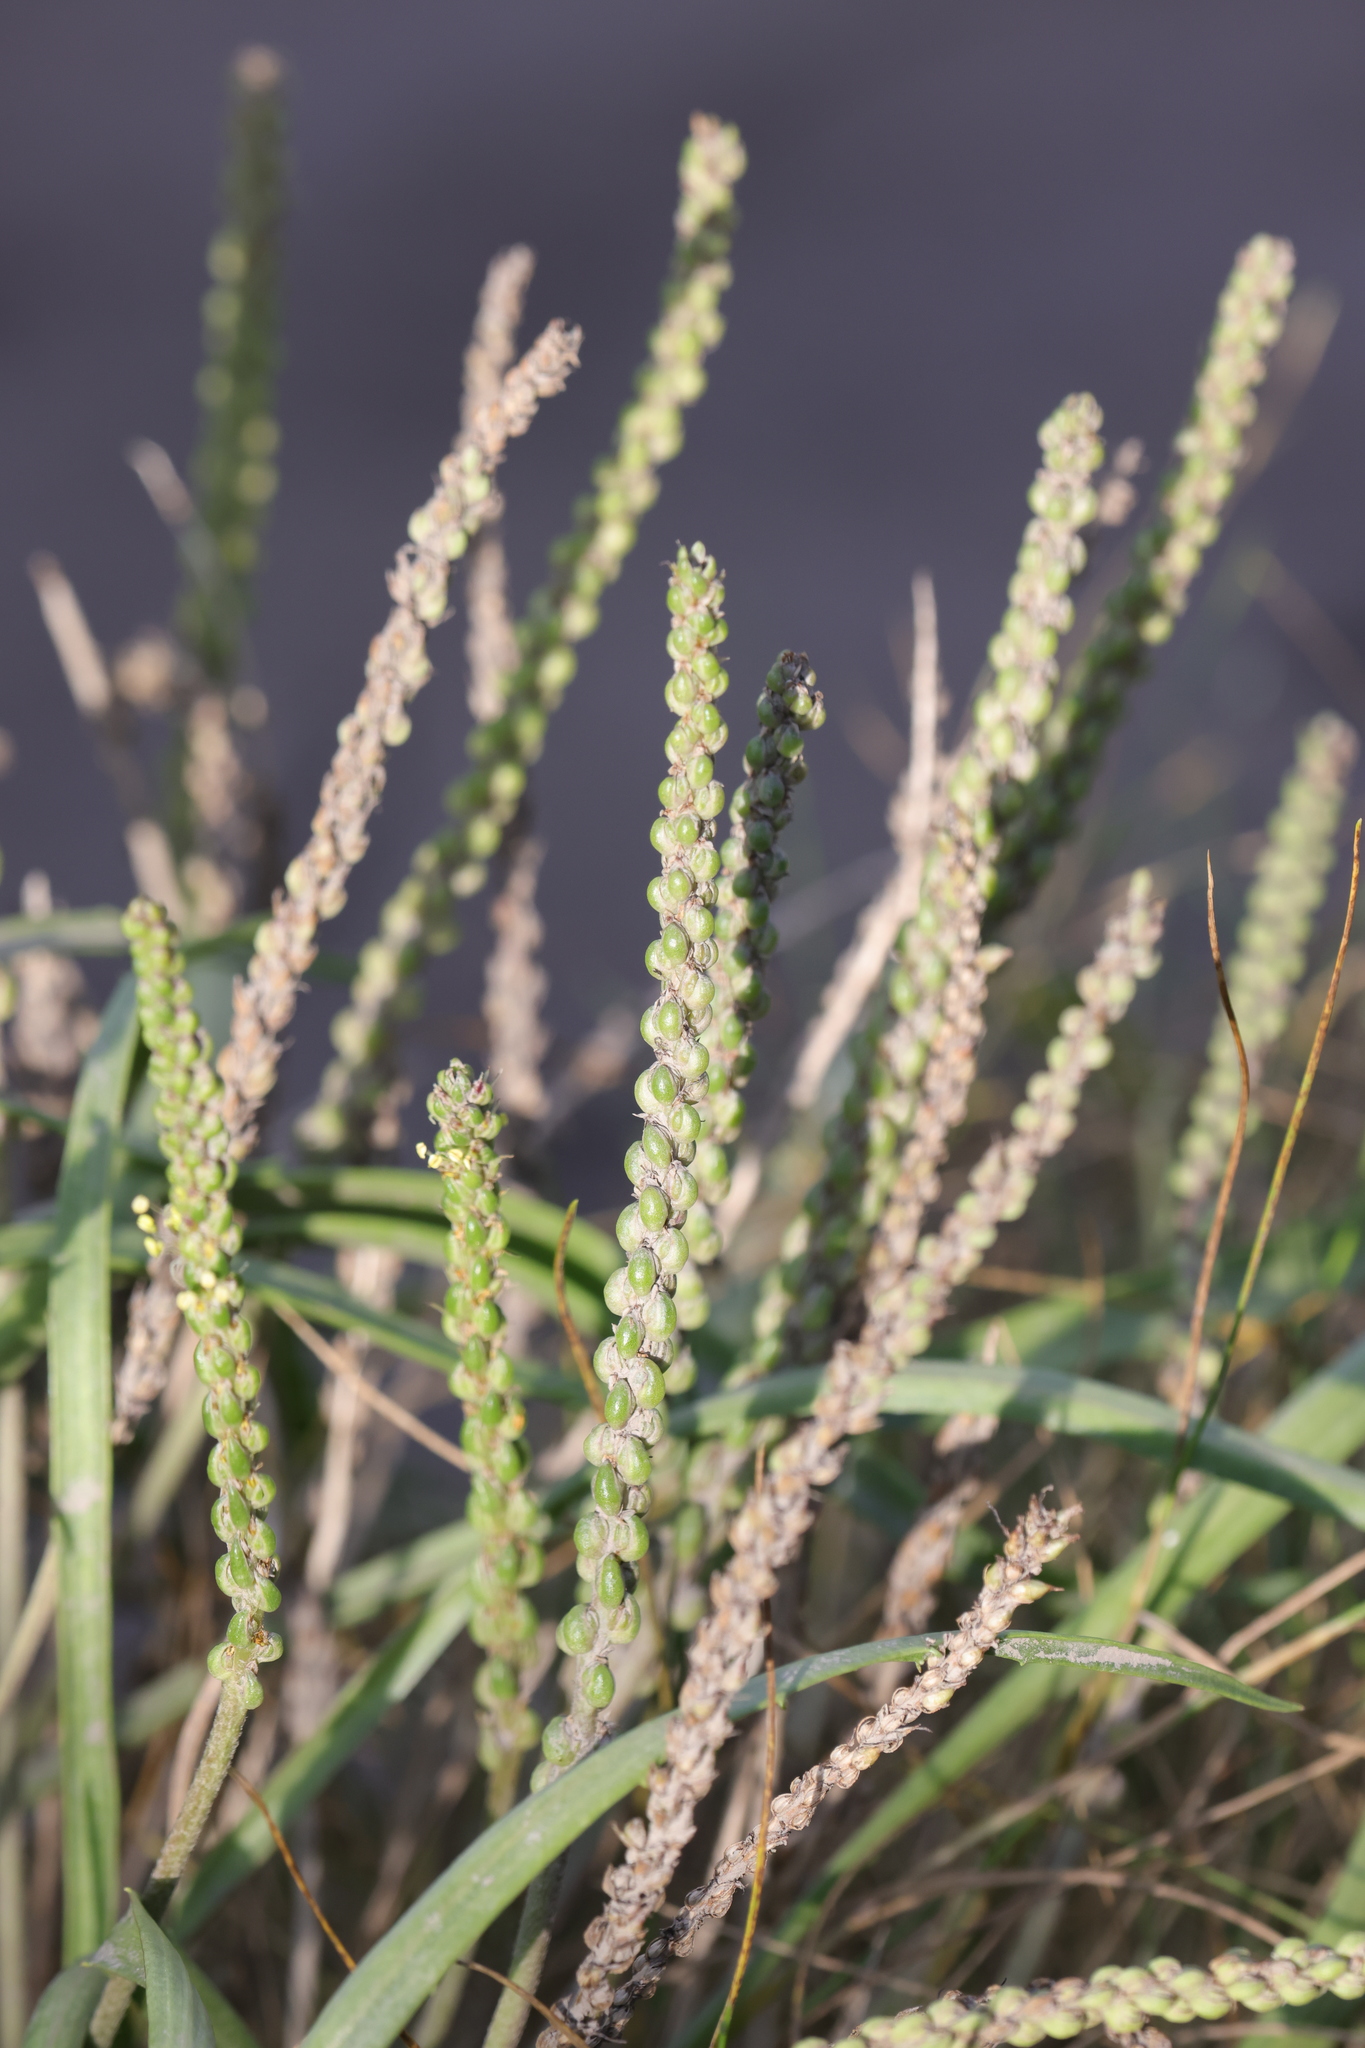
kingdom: Plantae
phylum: Tracheophyta
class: Magnoliopsida
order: Lamiales
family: Plantaginaceae
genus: Plantago
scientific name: Plantago maritima
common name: Sea plantain
